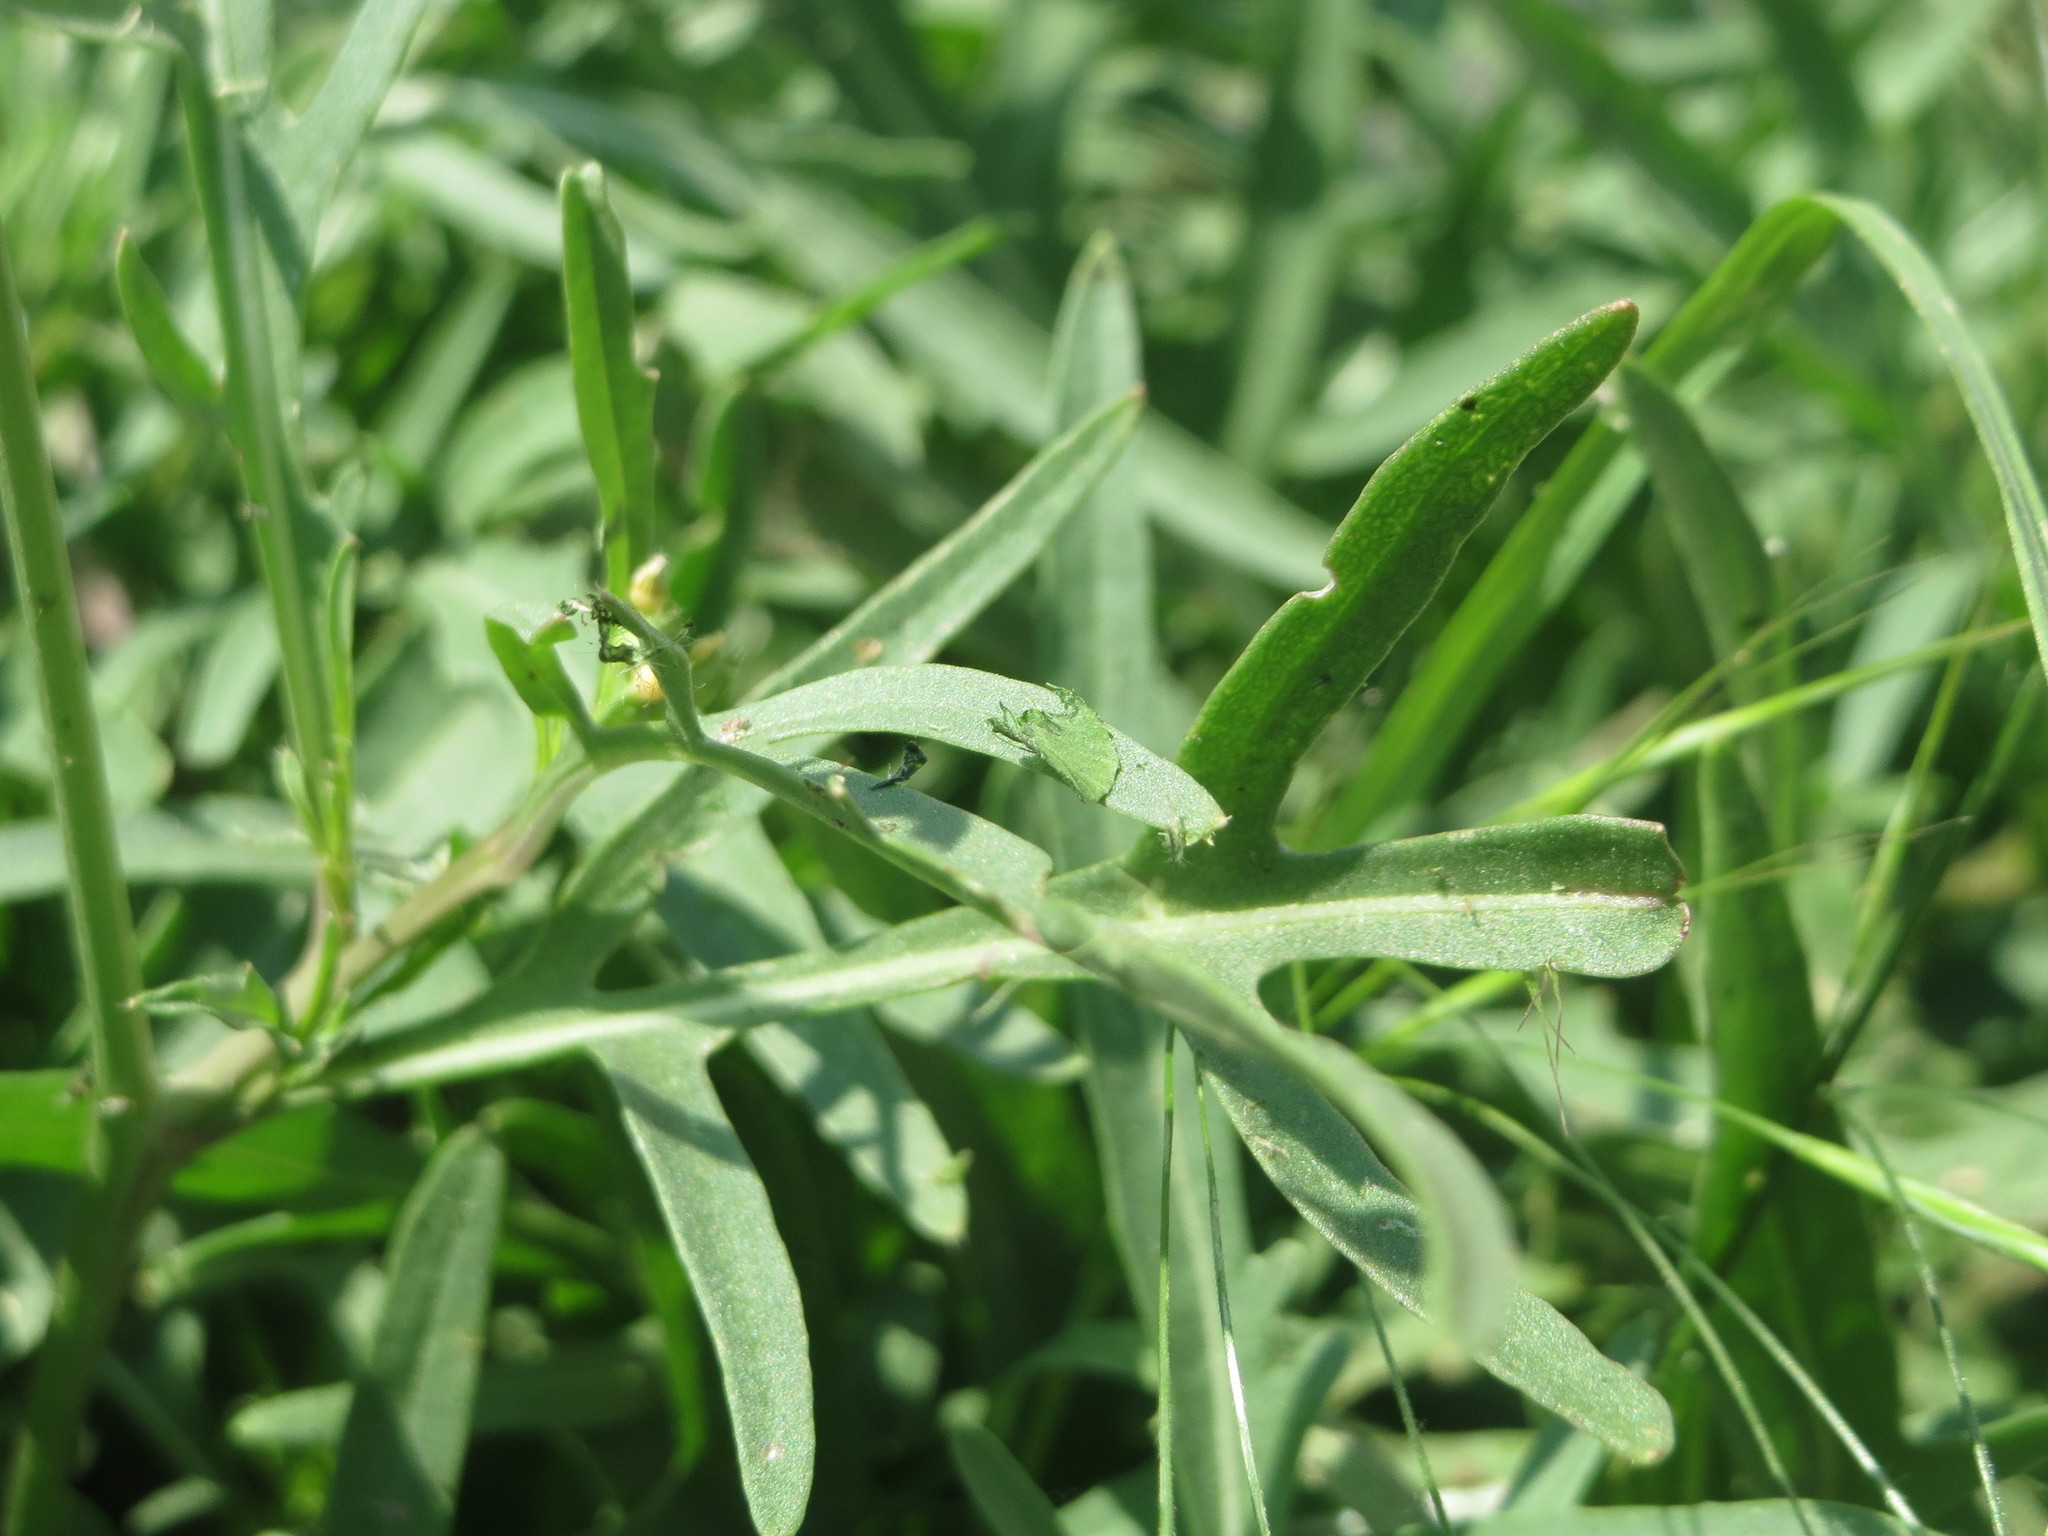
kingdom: Plantae
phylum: Tracheophyta
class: Magnoliopsida
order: Brassicales
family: Brassicaceae
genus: Diplotaxis
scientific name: Diplotaxis tenuifolia
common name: Perennial wall-rocket
